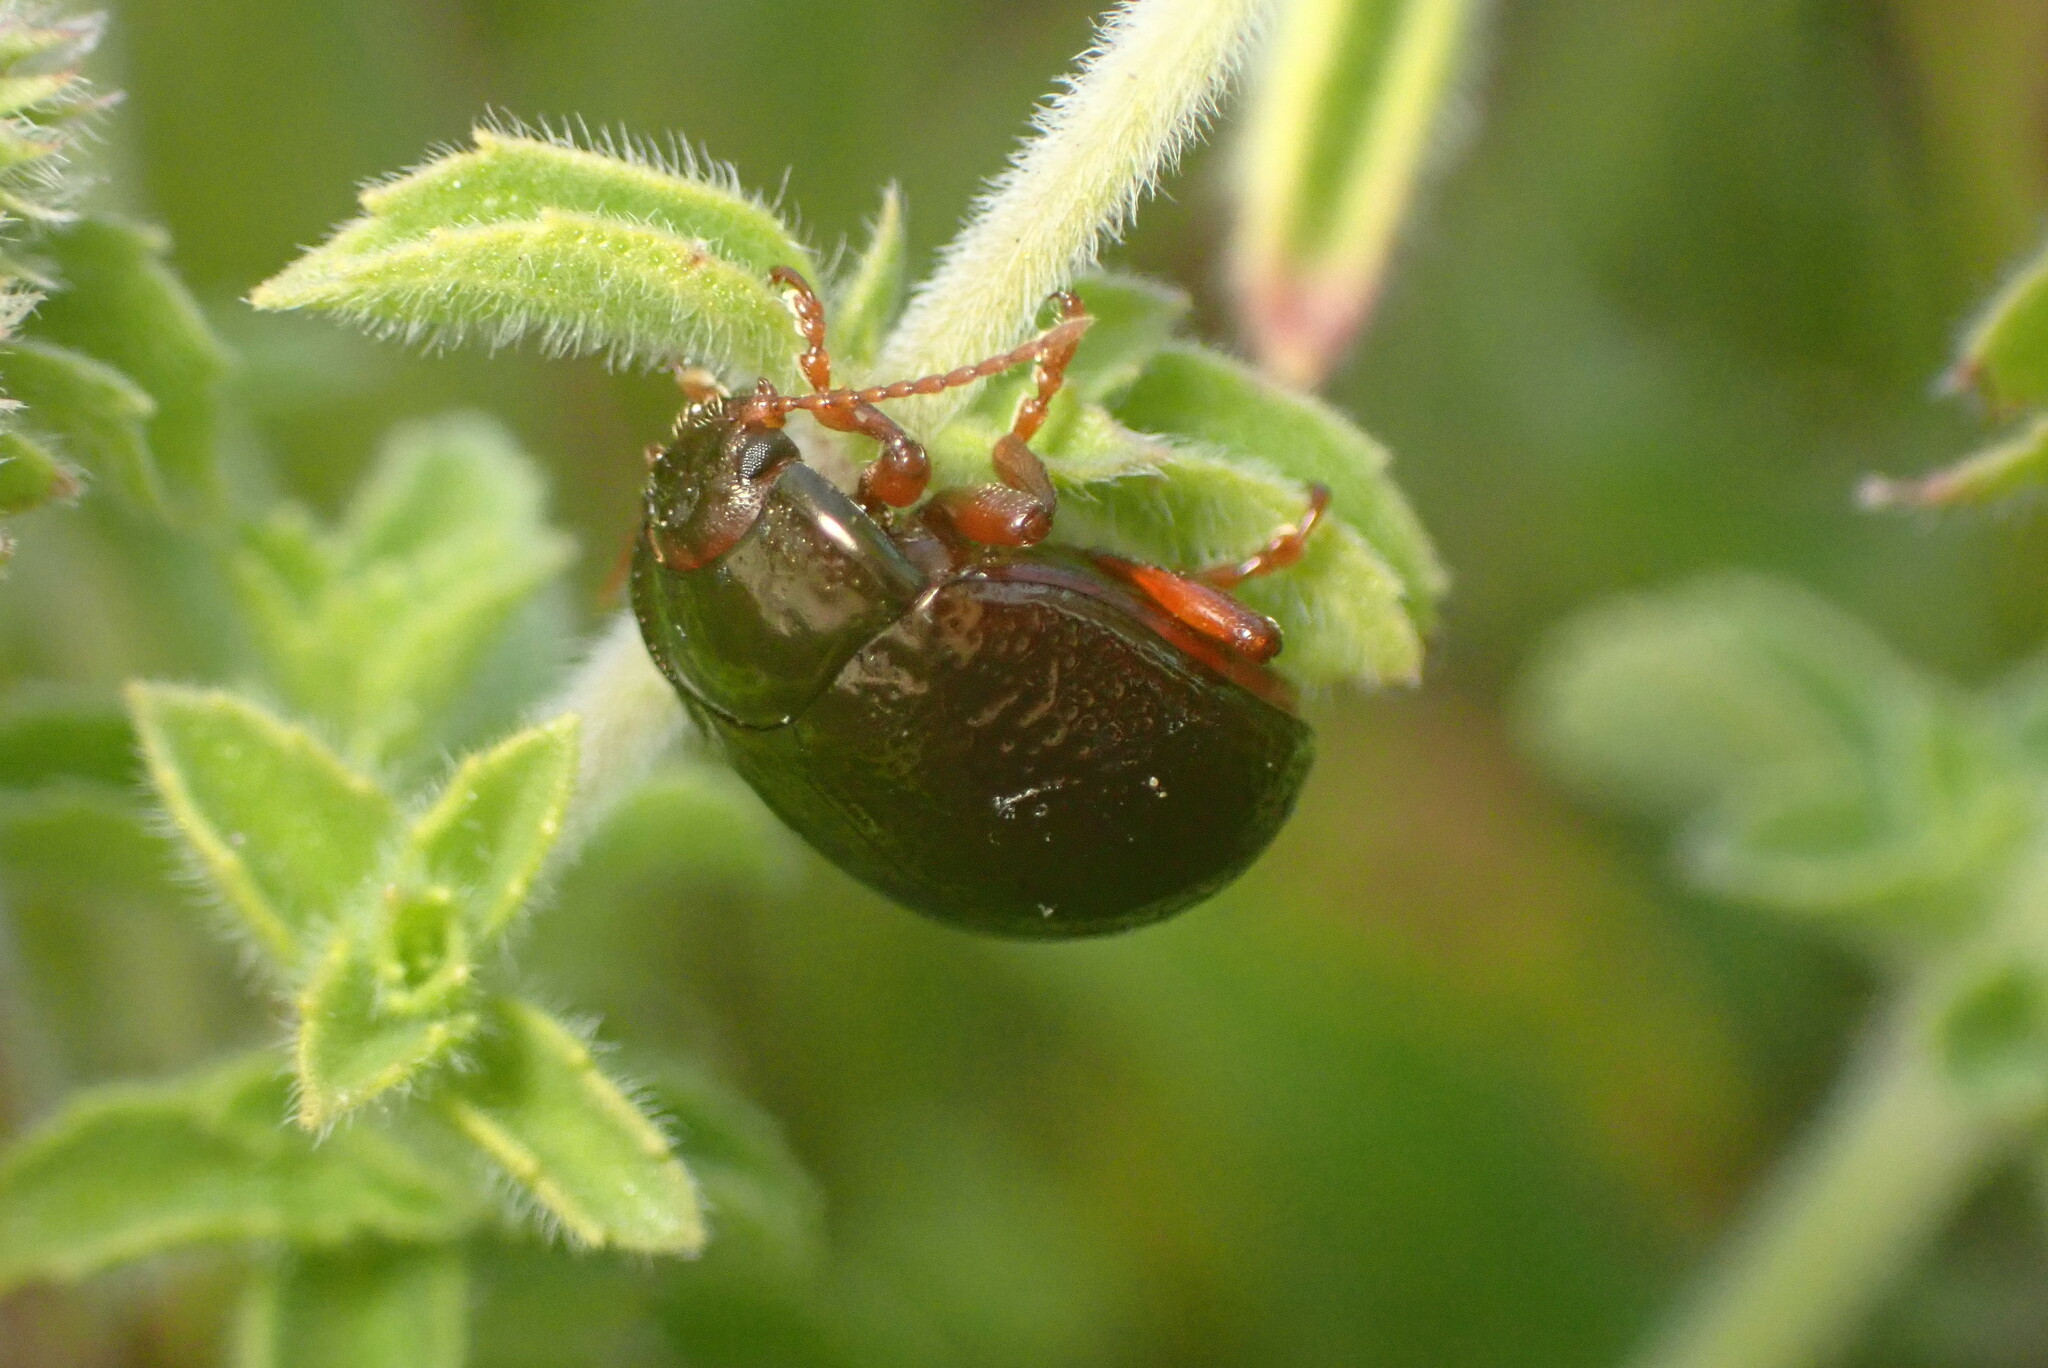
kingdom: Animalia
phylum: Arthropoda
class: Insecta
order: Coleoptera
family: Chrysomelidae
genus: Chrysolina
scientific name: Chrysolina bankii
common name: Leaf beetle
